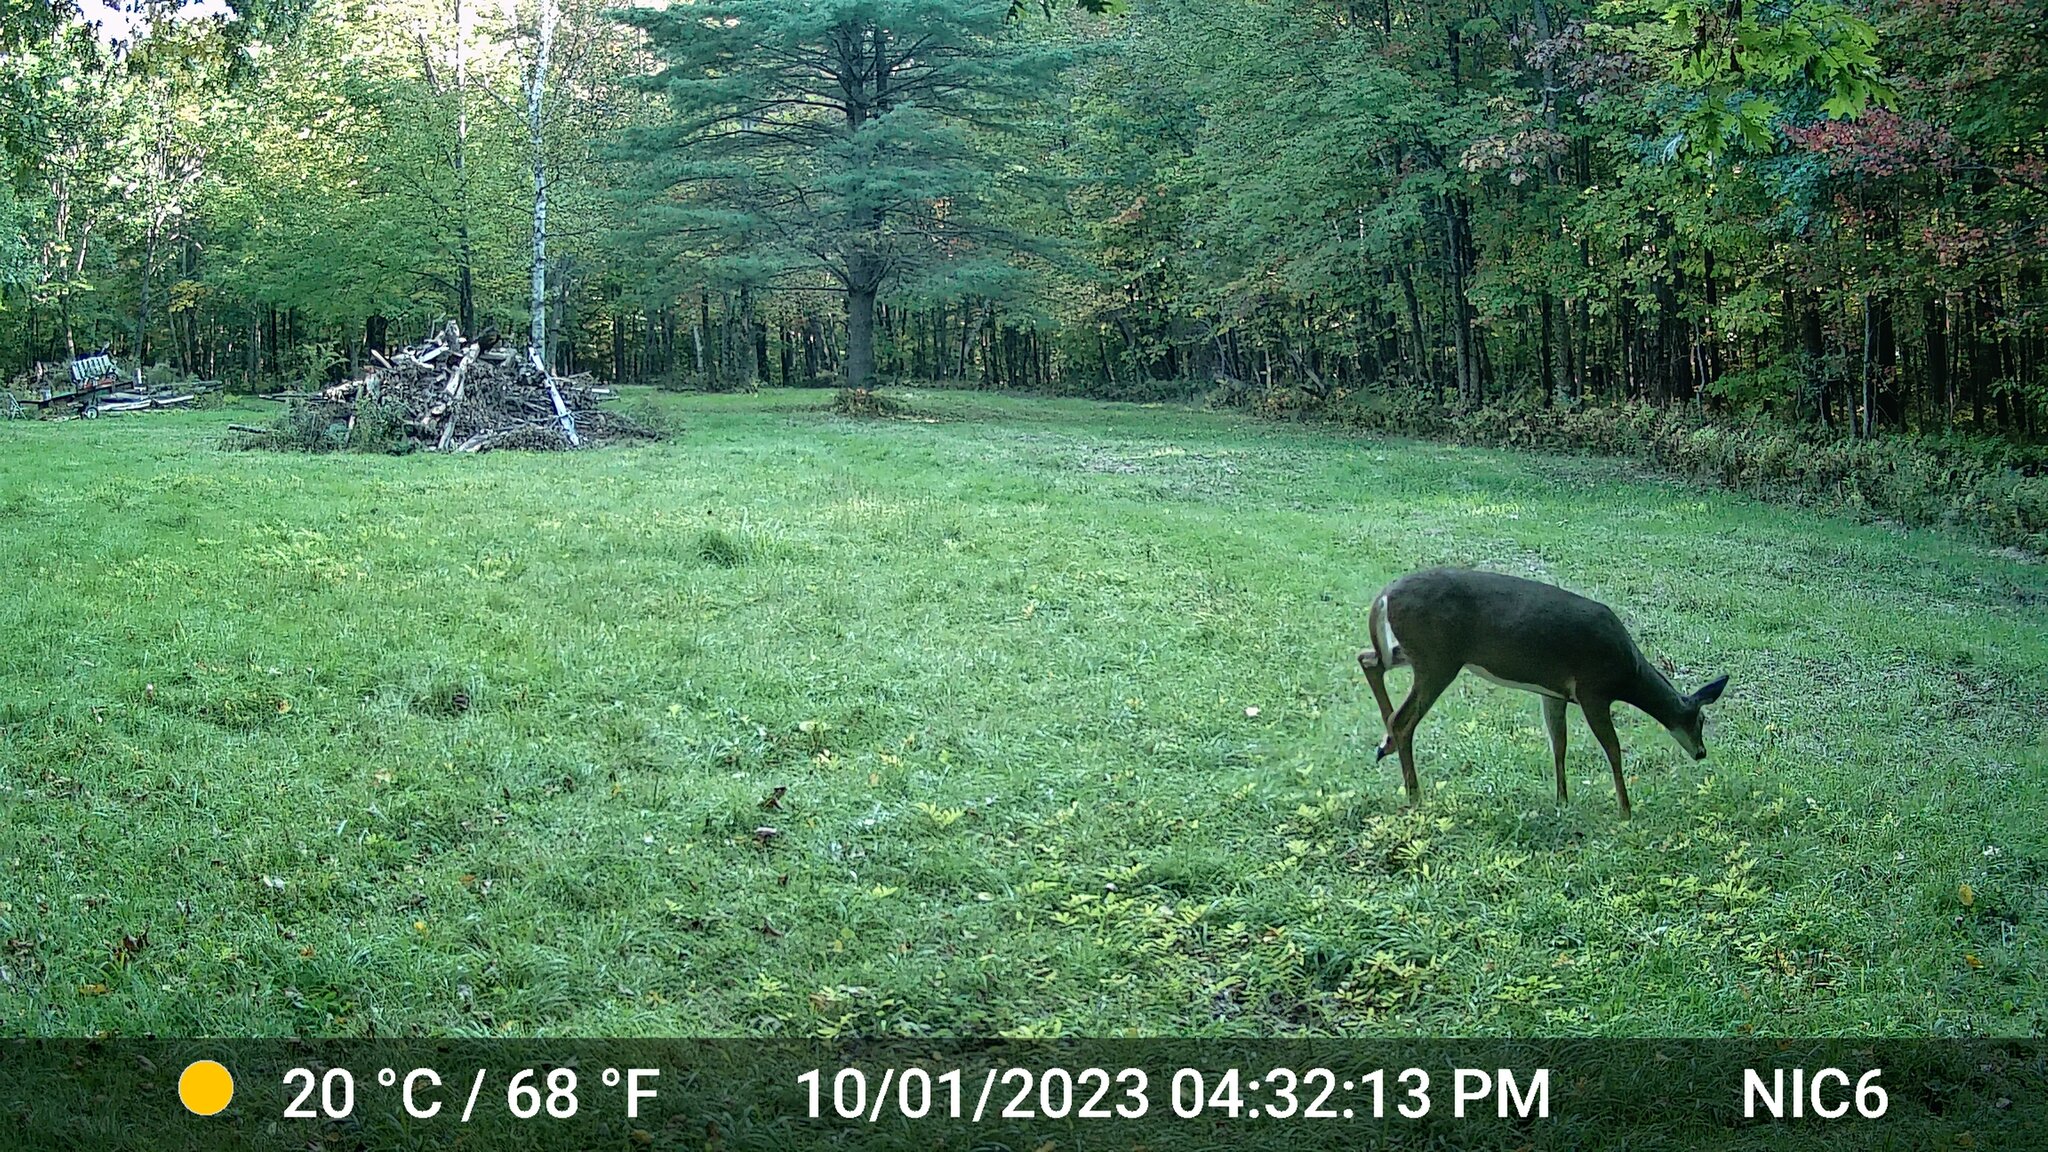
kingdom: Animalia
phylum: Chordata
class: Mammalia
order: Artiodactyla
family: Cervidae
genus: Odocoileus
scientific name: Odocoileus virginianus
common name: White-tailed deer
